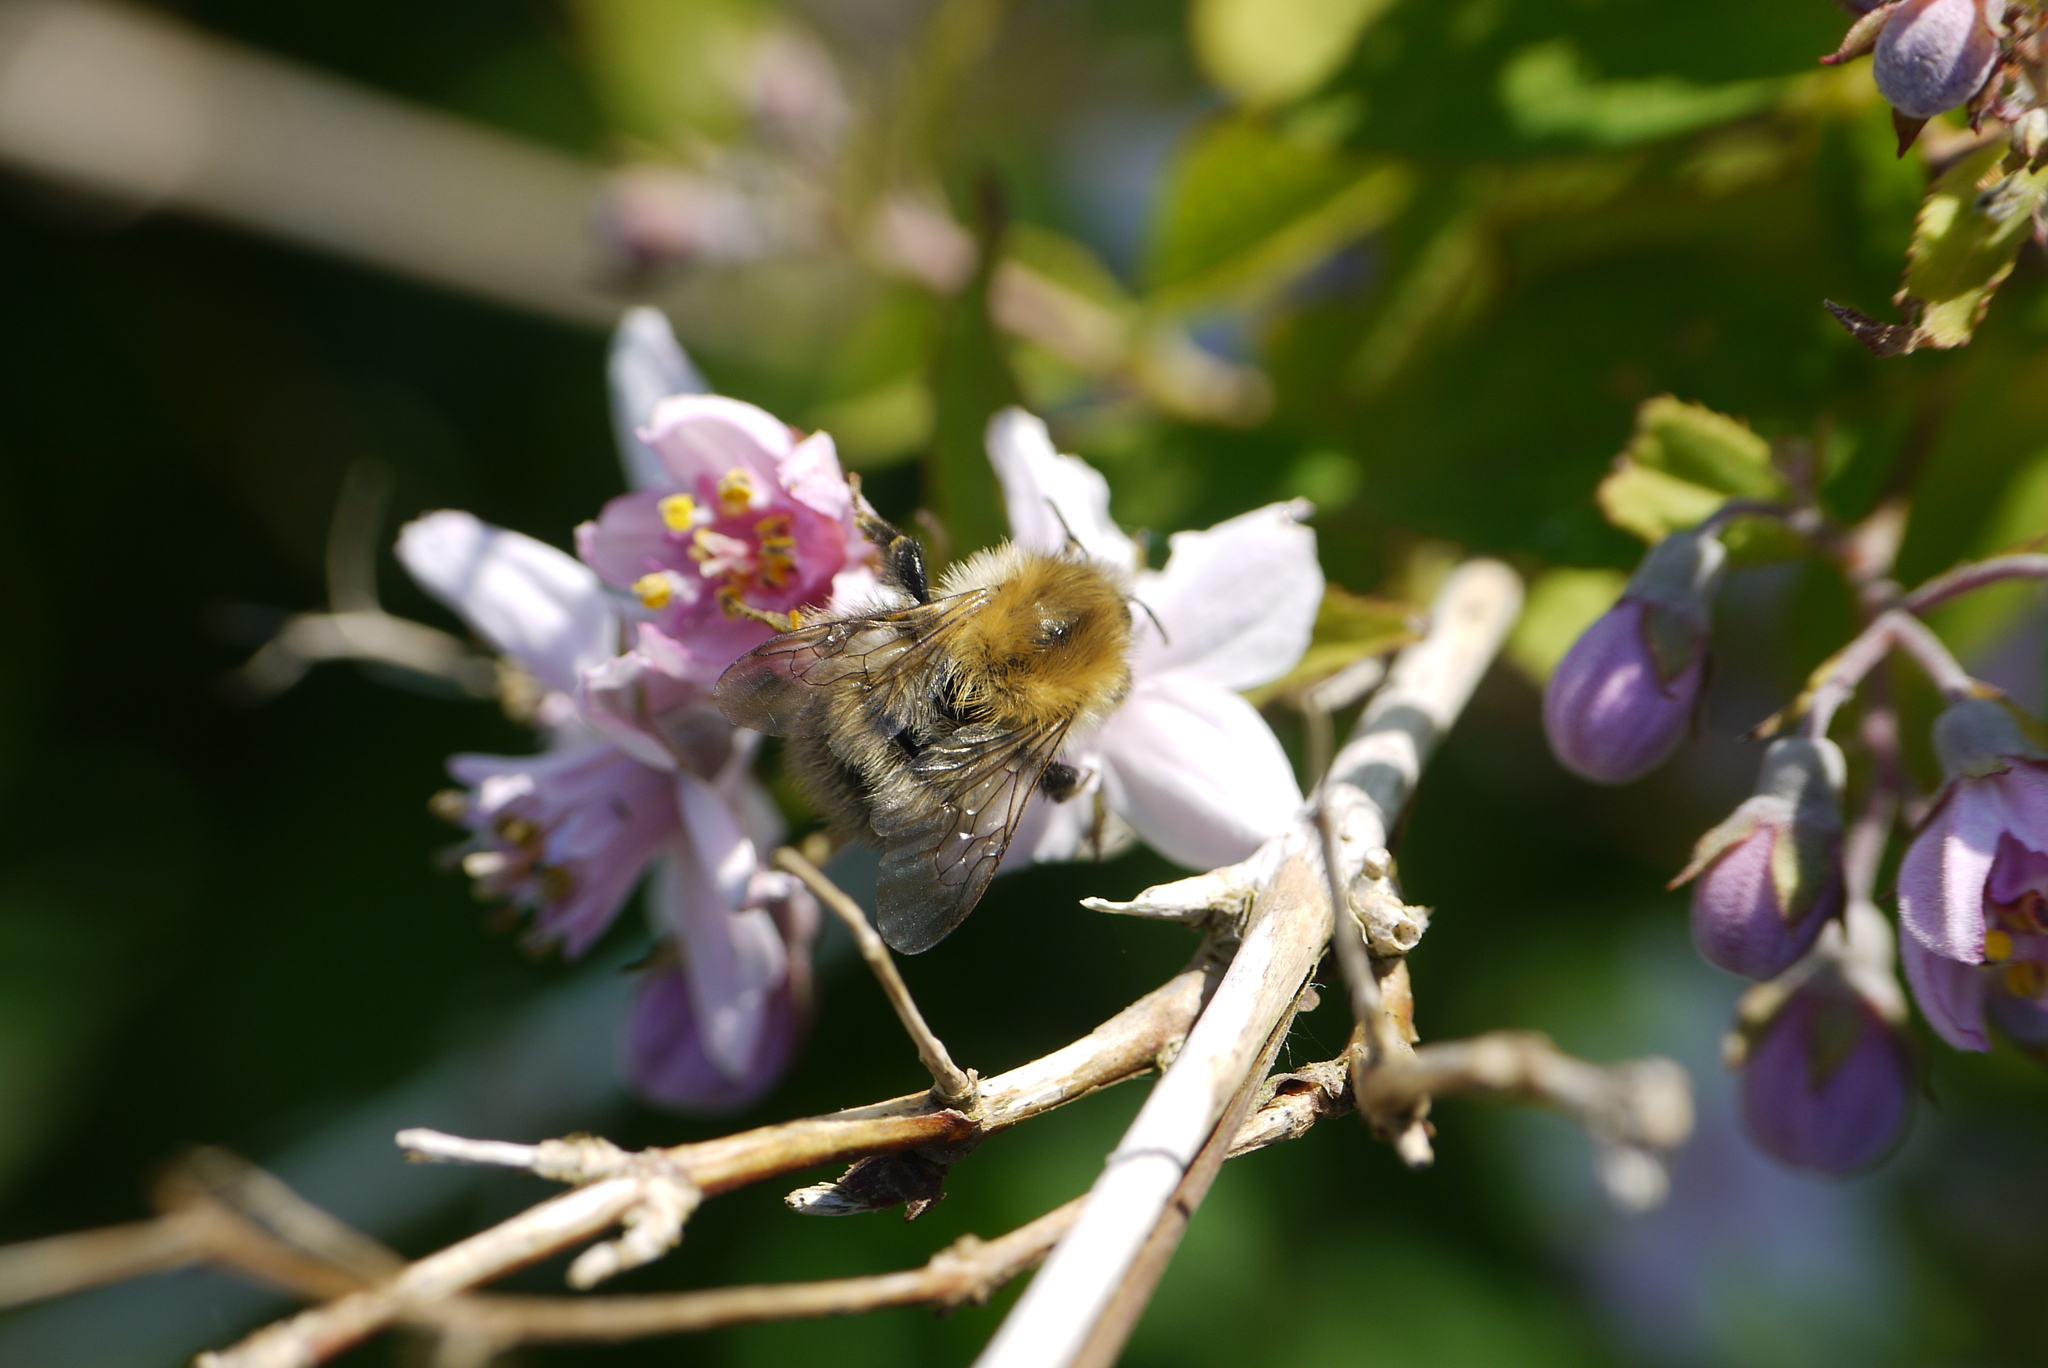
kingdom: Animalia
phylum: Arthropoda
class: Insecta
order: Hymenoptera
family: Apidae
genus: Bombus
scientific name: Bombus pascuorum
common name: Common carder bee
